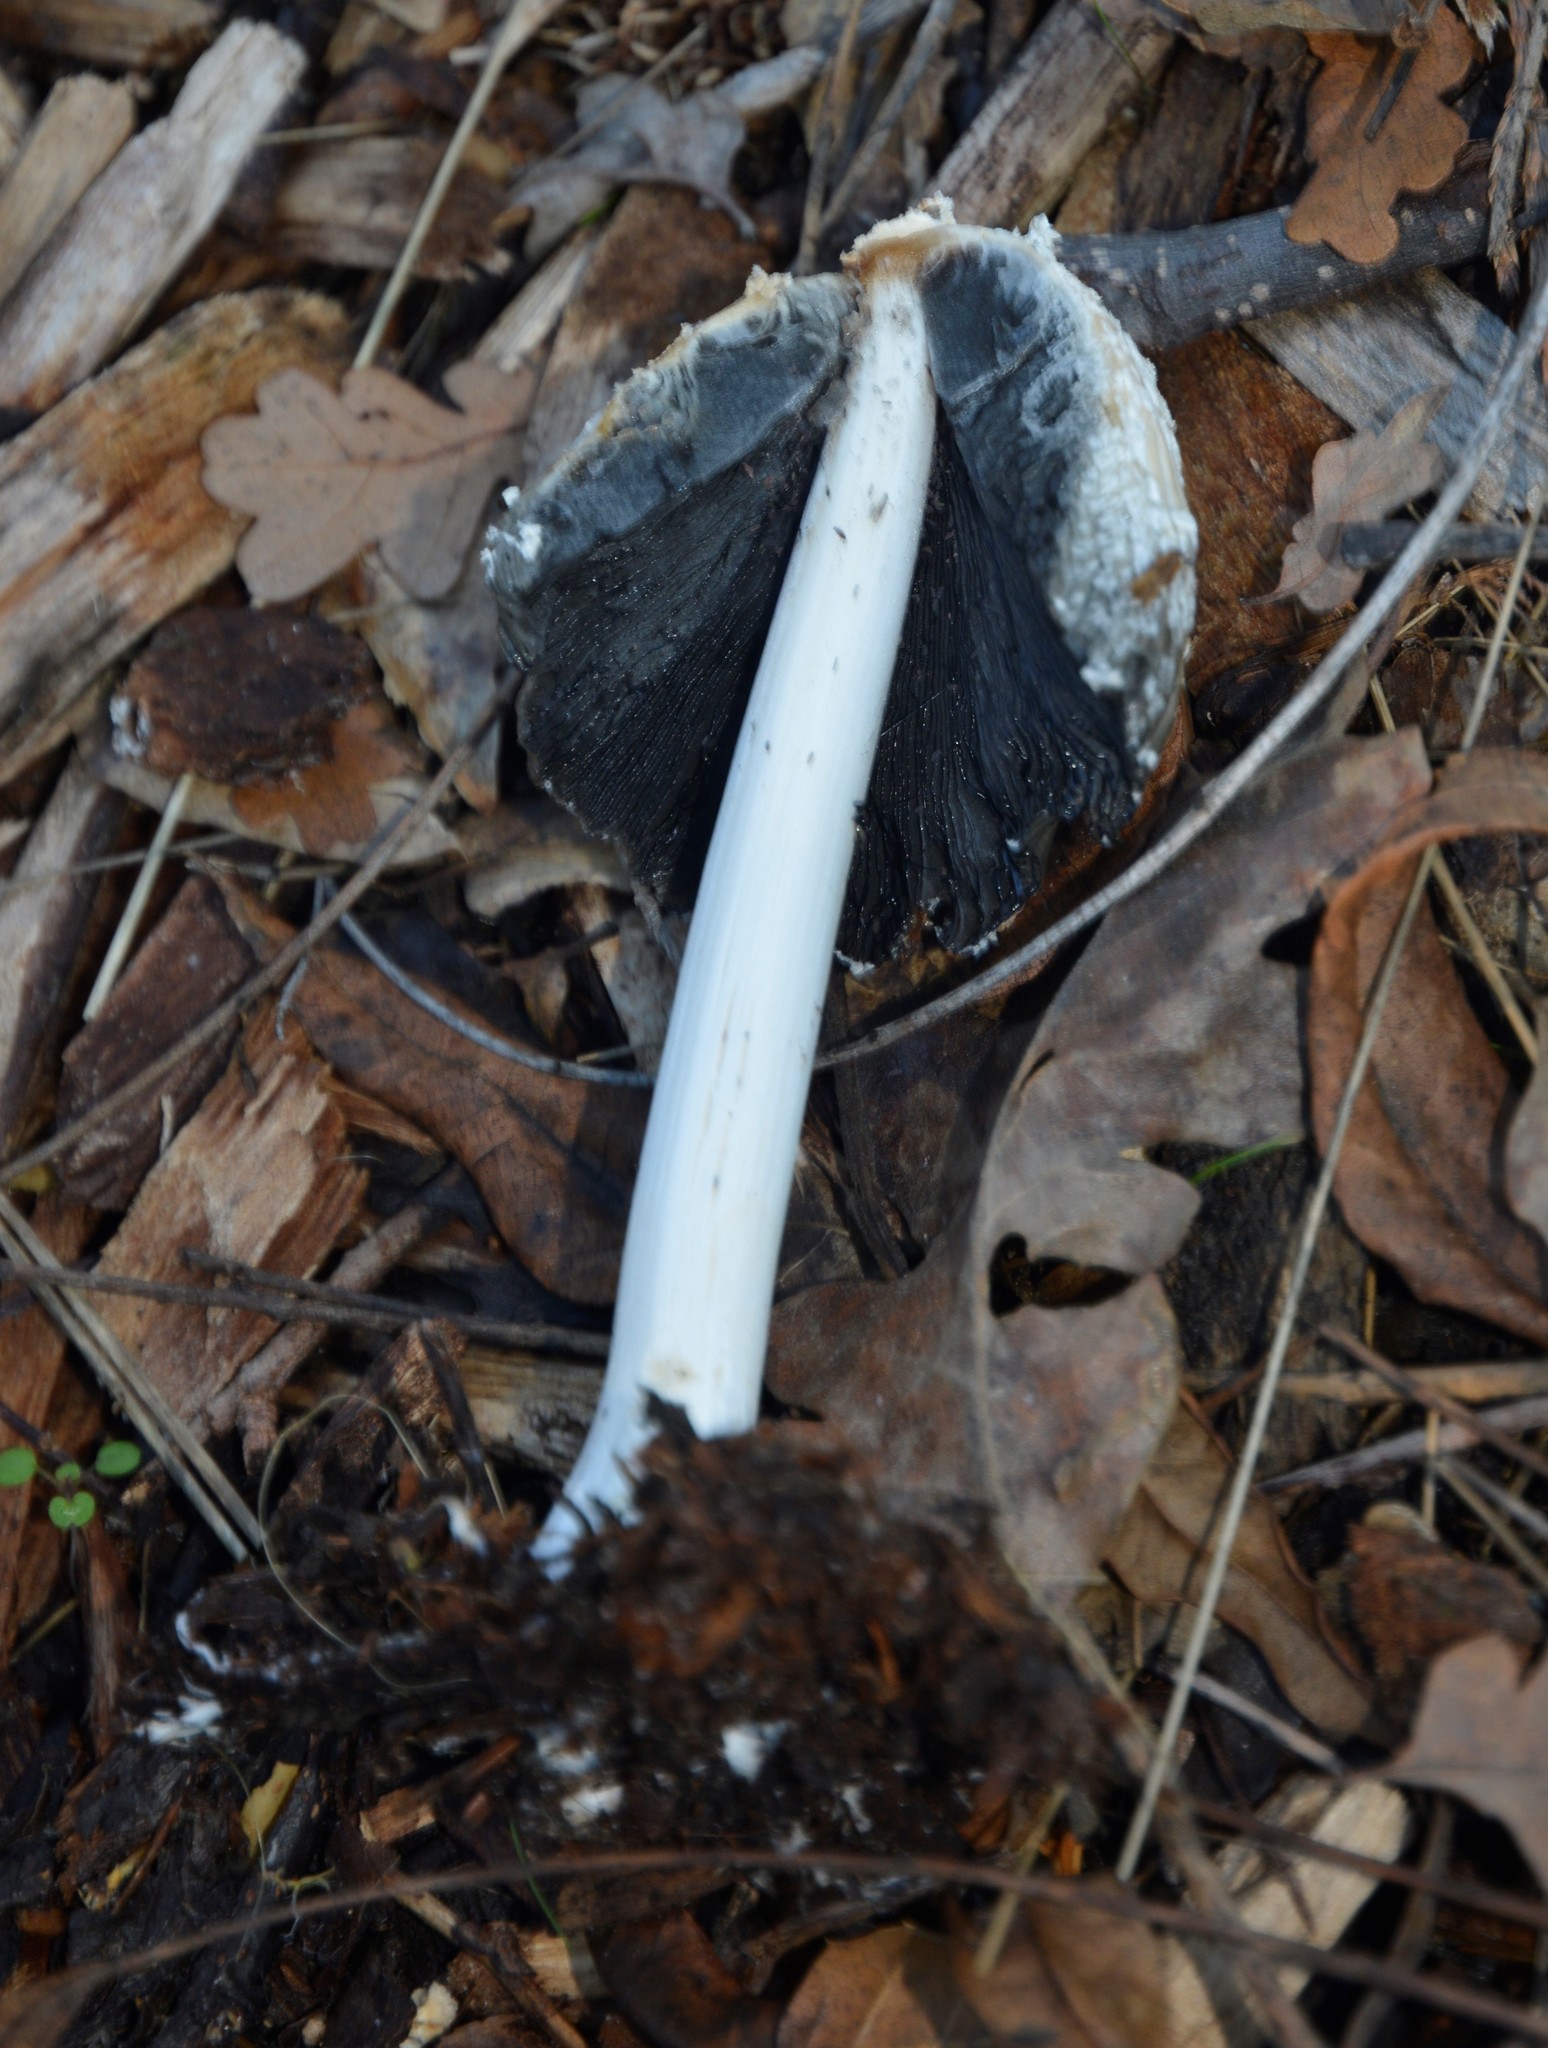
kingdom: Fungi
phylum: Basidiomycota
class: Agaricomycetes
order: Agaricales
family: Psathyrellaceae
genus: Coprinellus
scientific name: Coprinellus flocculosus
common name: Flocculose inkcap
